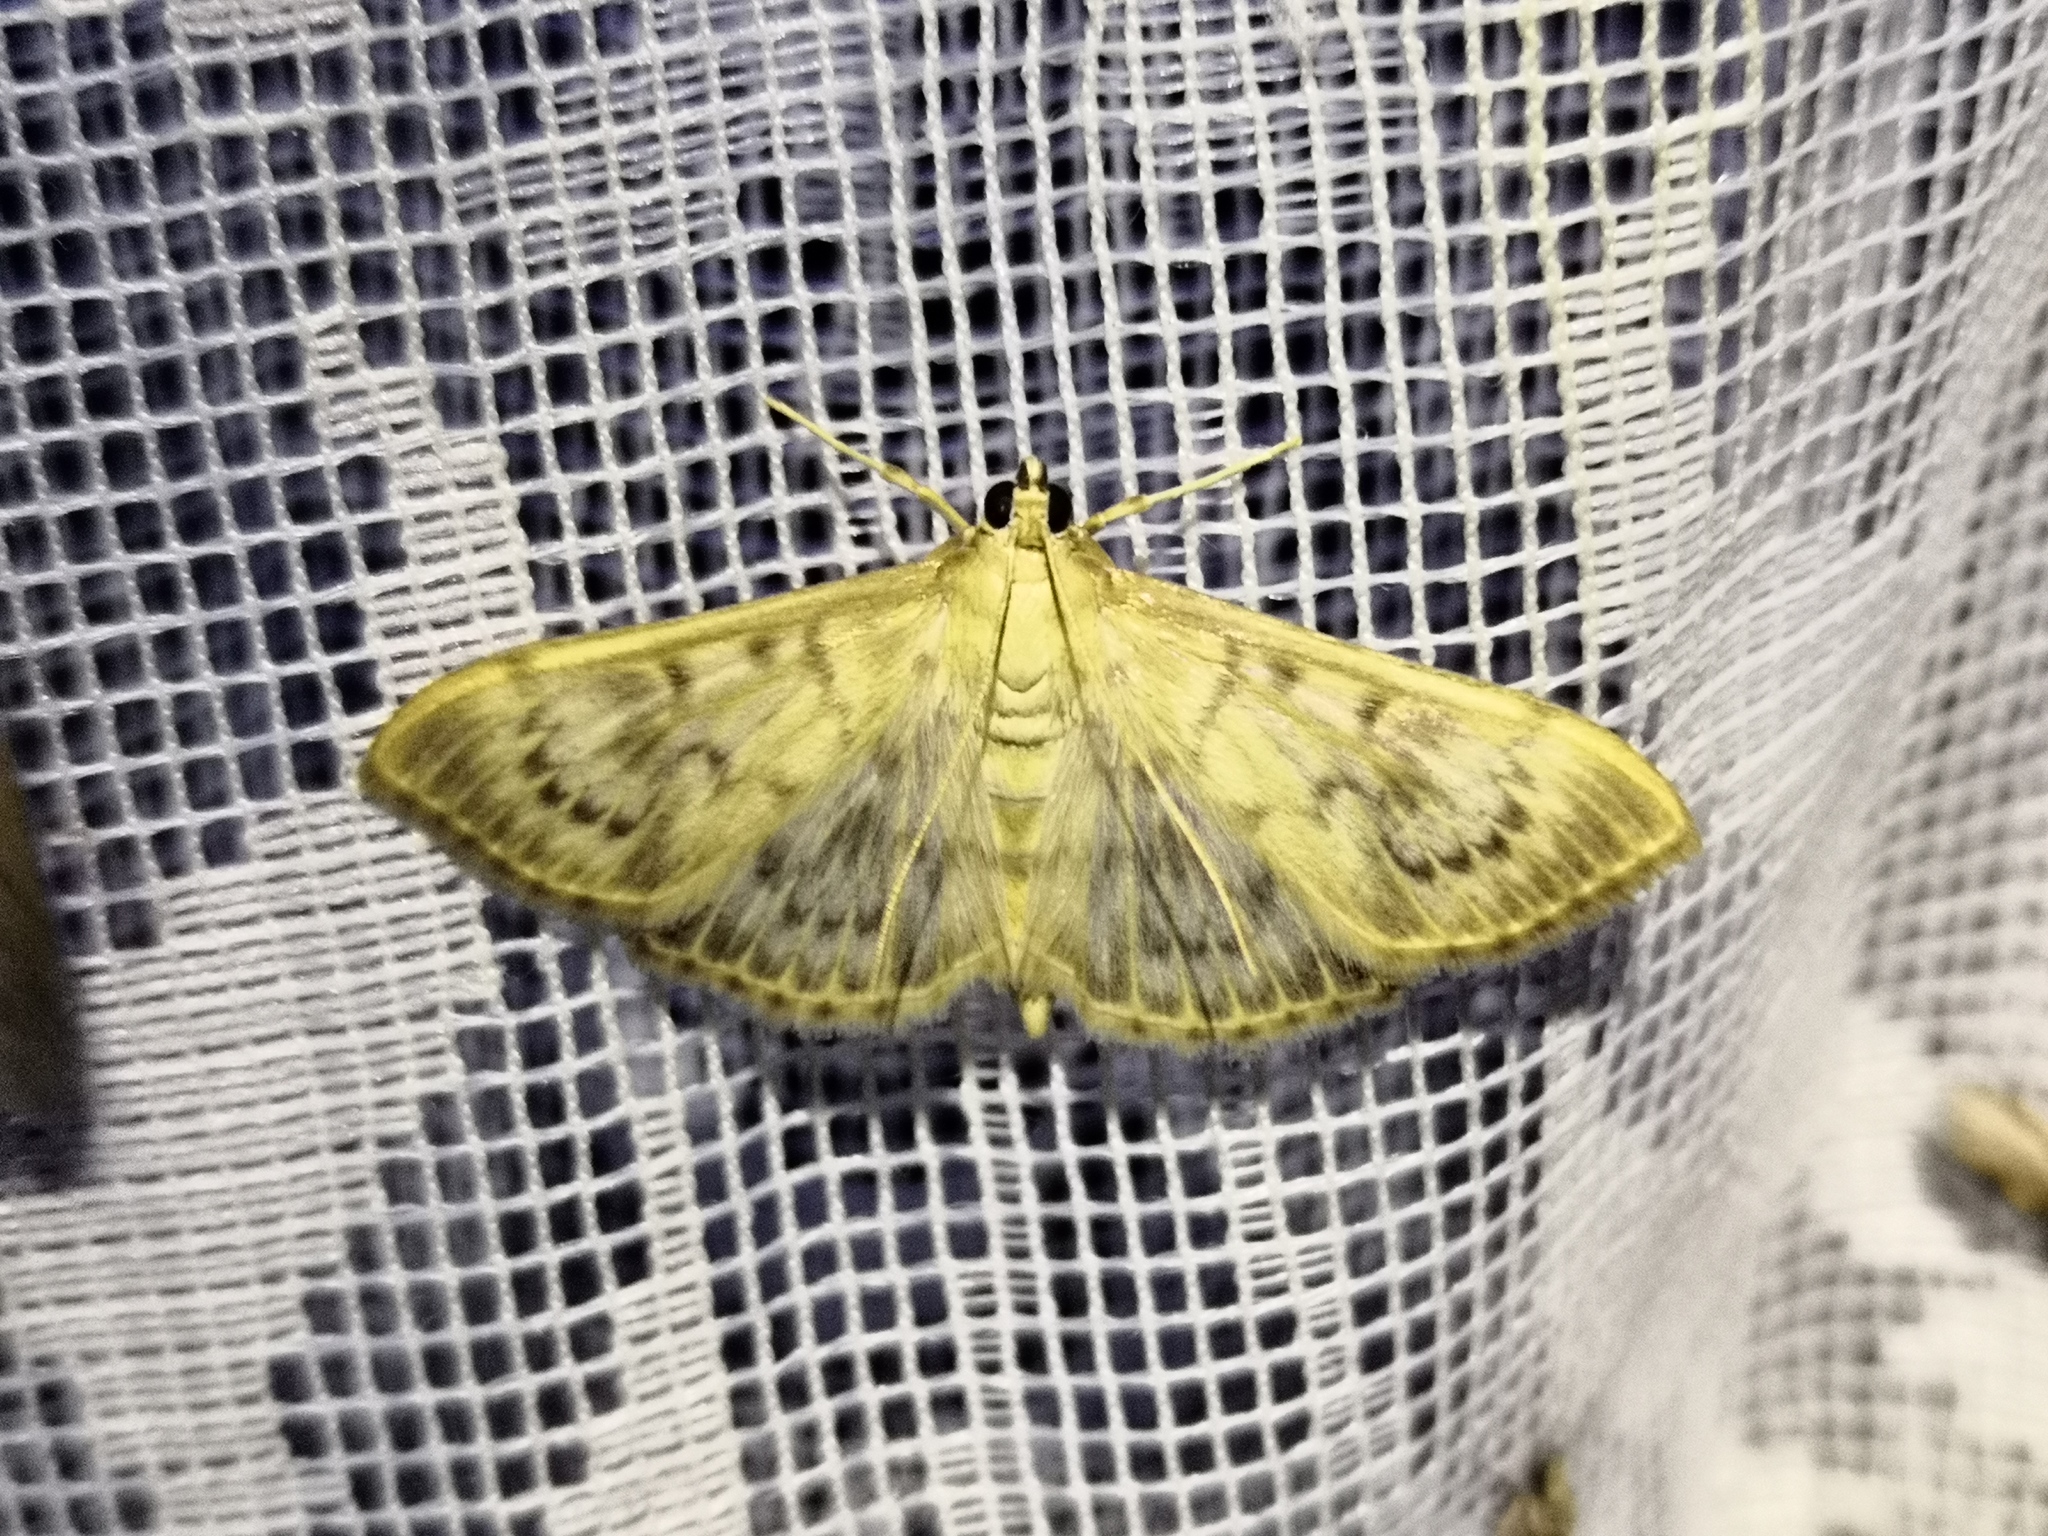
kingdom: Animalia
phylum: Arthropoda
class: Insecta
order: Lepidoptera
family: Crambidae
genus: Patania
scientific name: Patania ruralis
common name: Mother of pearl
